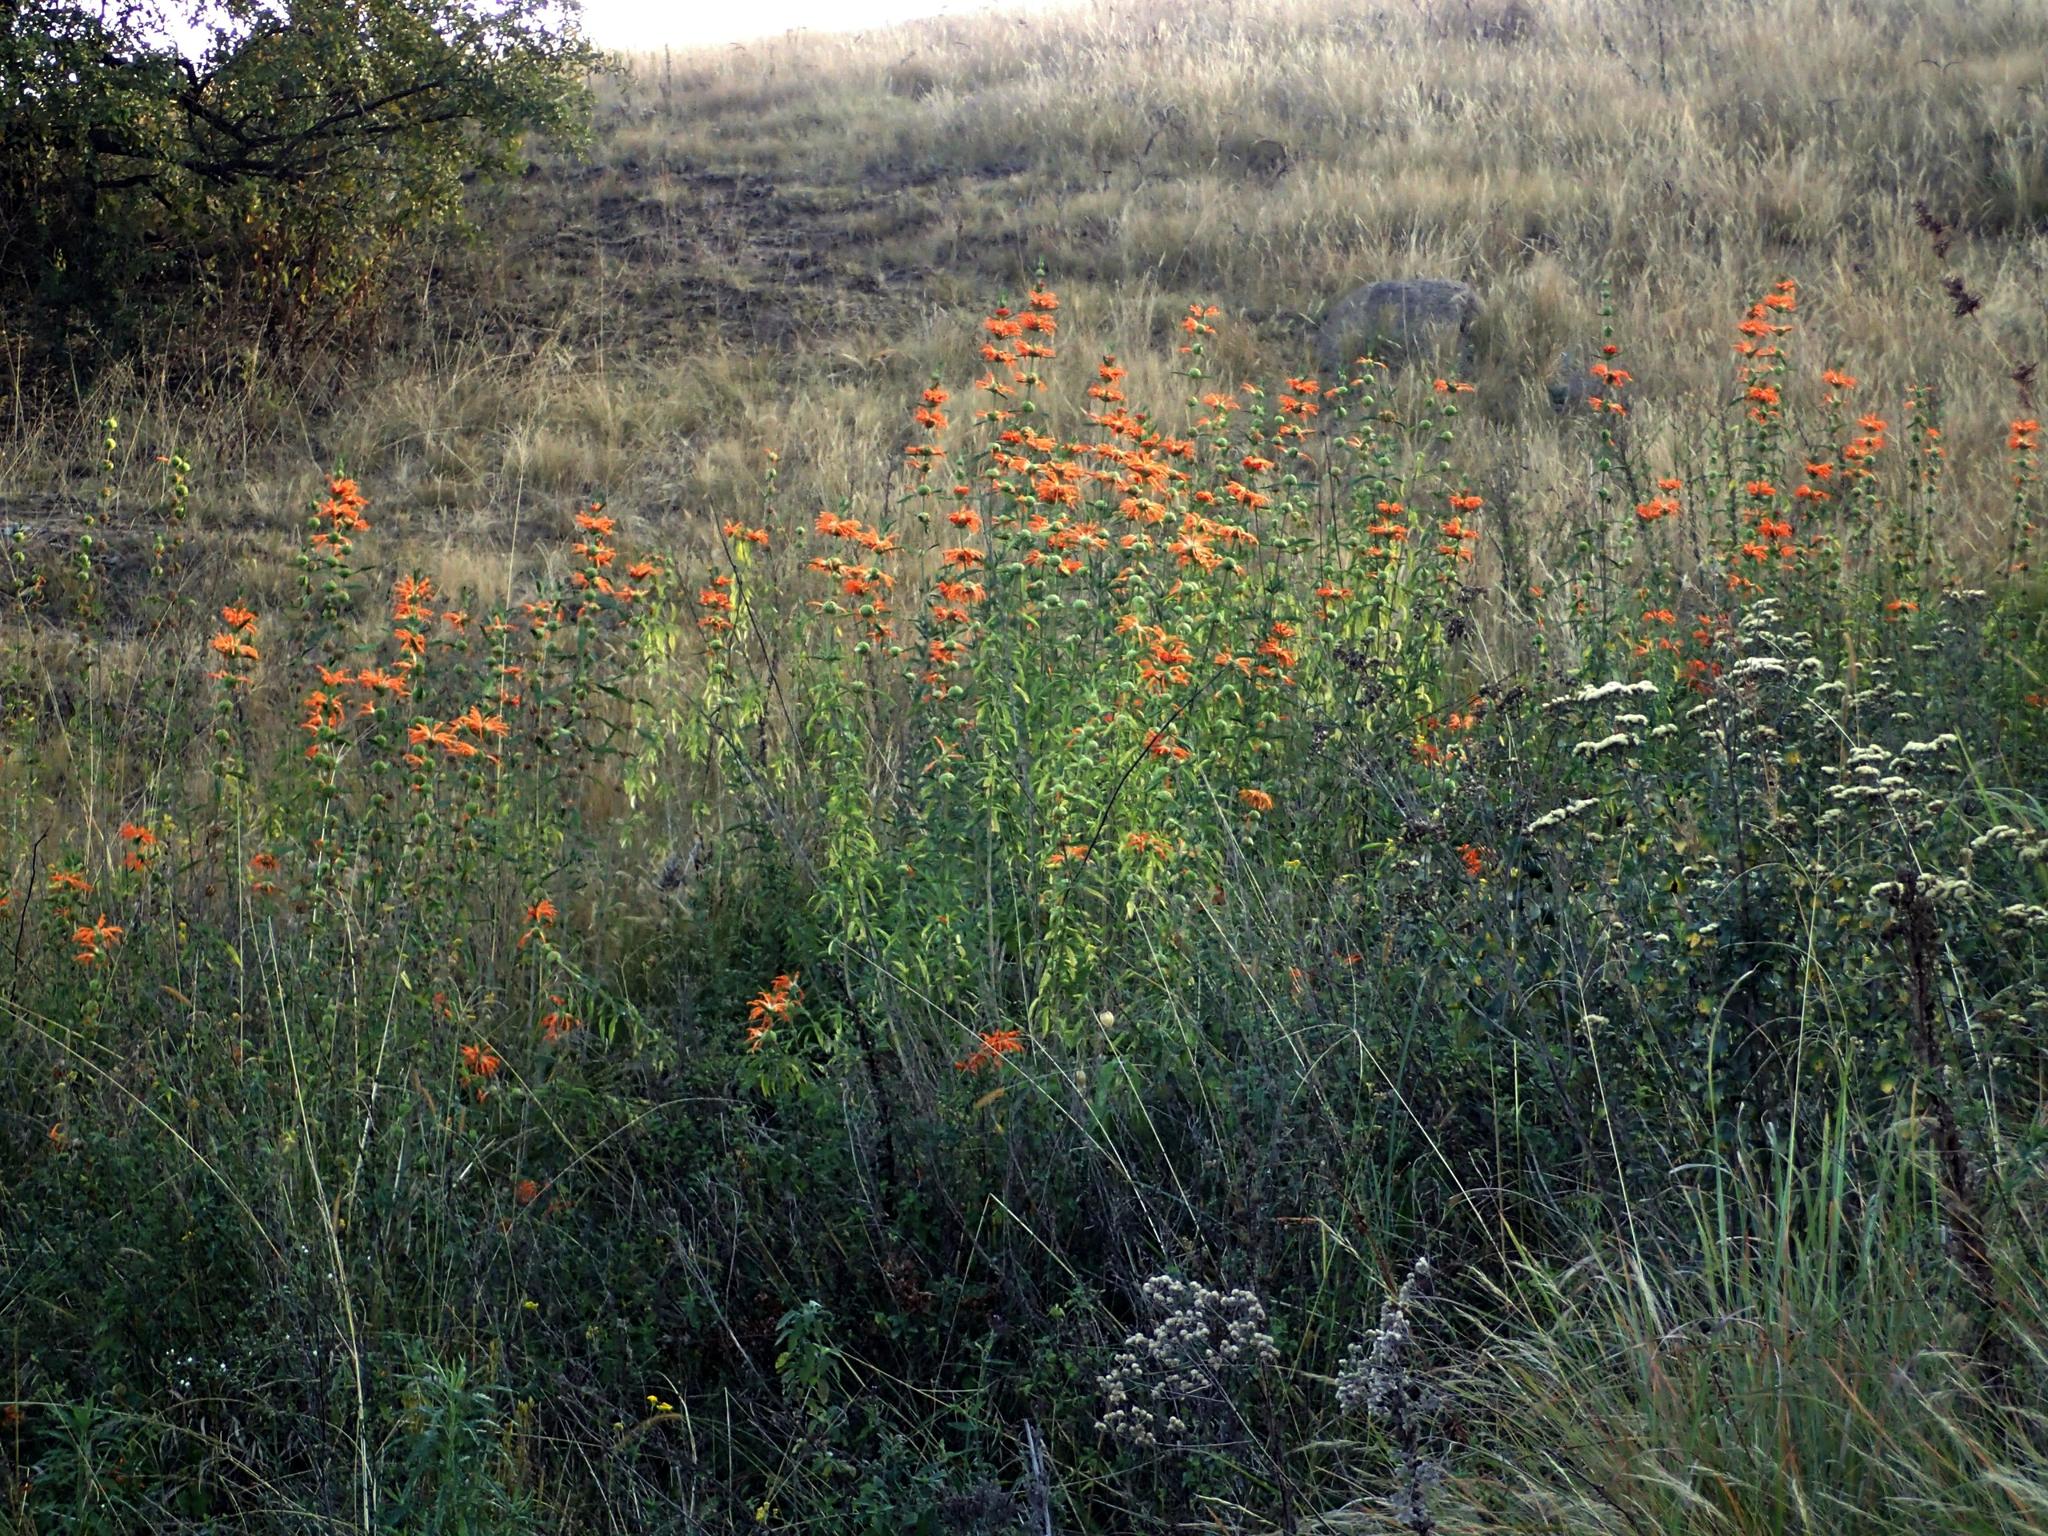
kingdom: Plantae
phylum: Tracheophyta
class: Magnoliopsida
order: Lamiales
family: Lamiaceae
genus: Leonotis
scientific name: Leonotis leonurus
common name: Lion's ear
